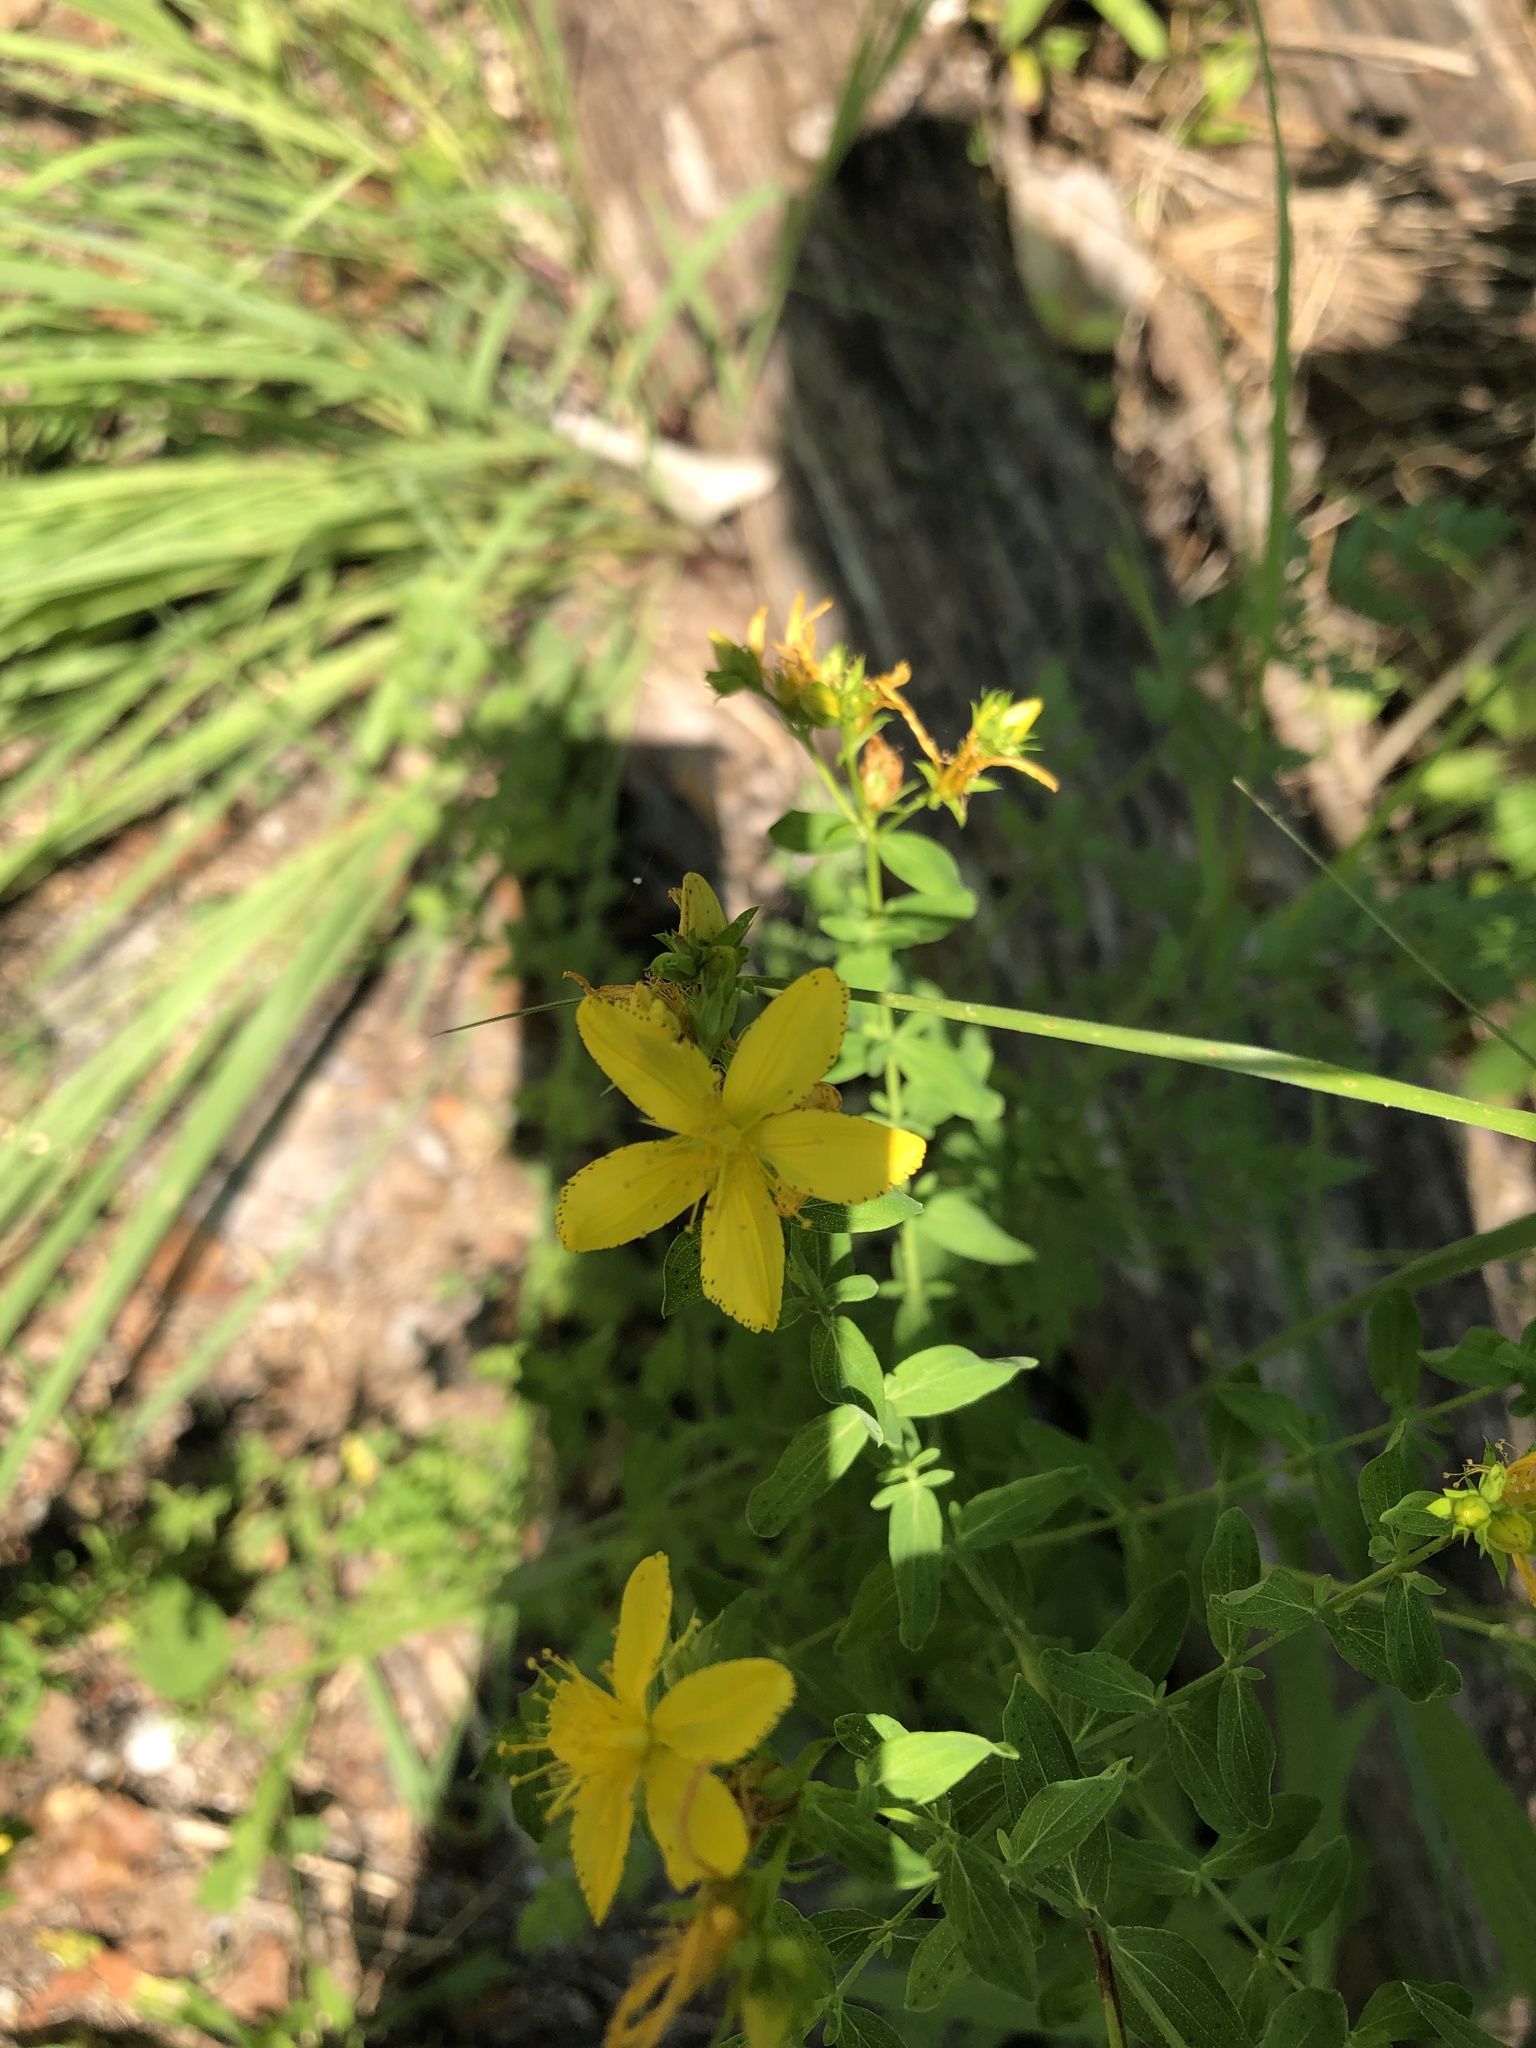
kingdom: Plantae
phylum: Tracheophyta
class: Magnoliopsida
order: Malpighiales
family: Hypericaceae
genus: Hypericum
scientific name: Hypericum perforatum
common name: Common st. johnswort
